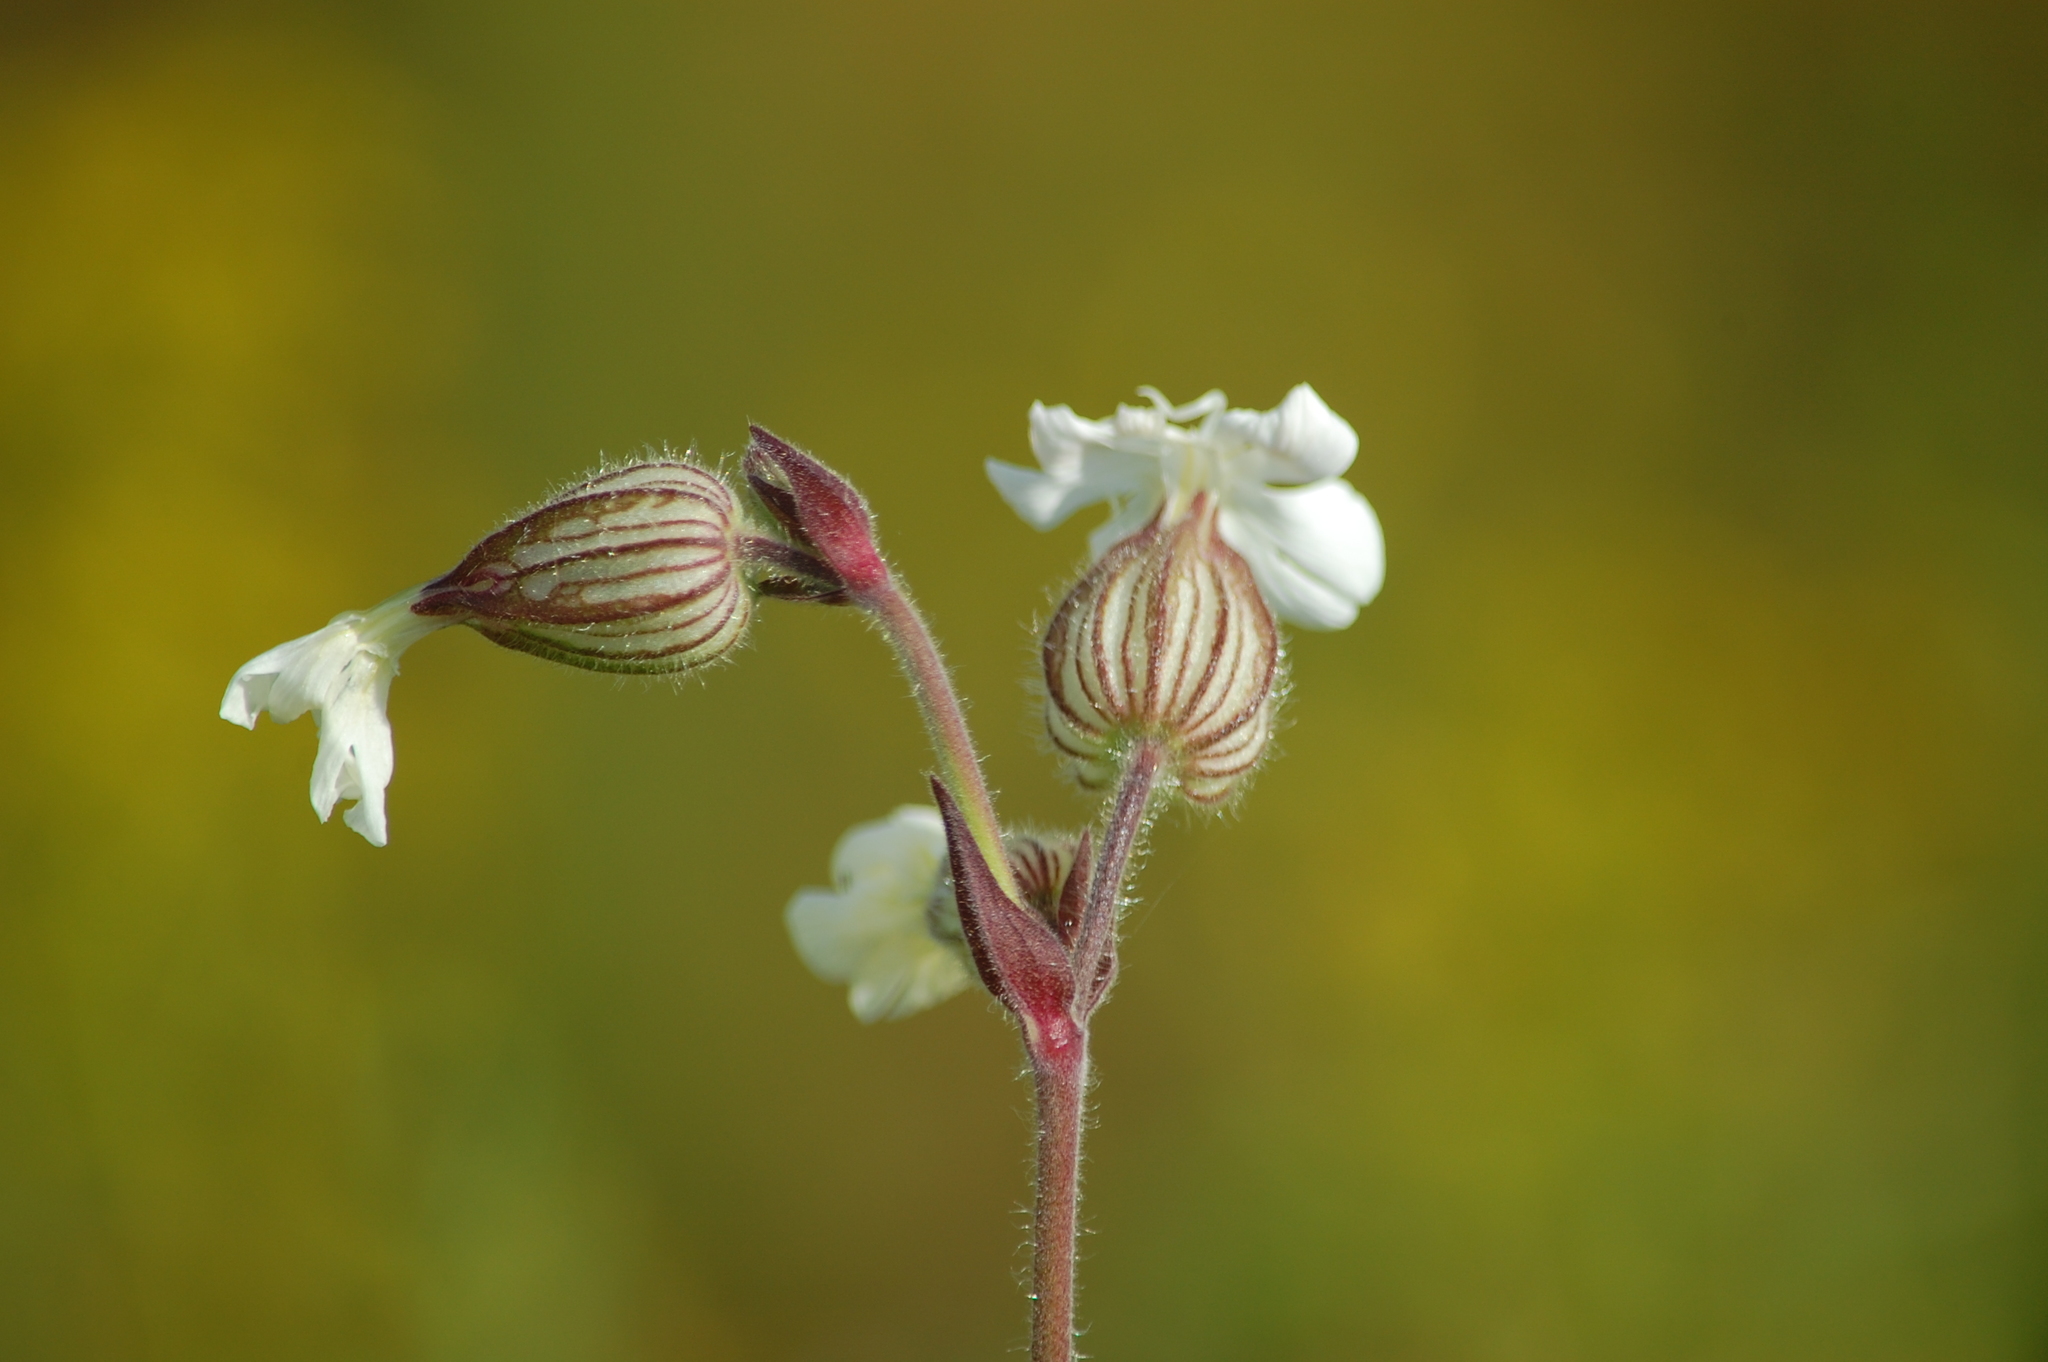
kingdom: Plantae
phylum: Tracheophyta
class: Magnoliopsida
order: Caryophyllales
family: Caryophyllaceae
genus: Silene
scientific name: Silene latifolia
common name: White campion
